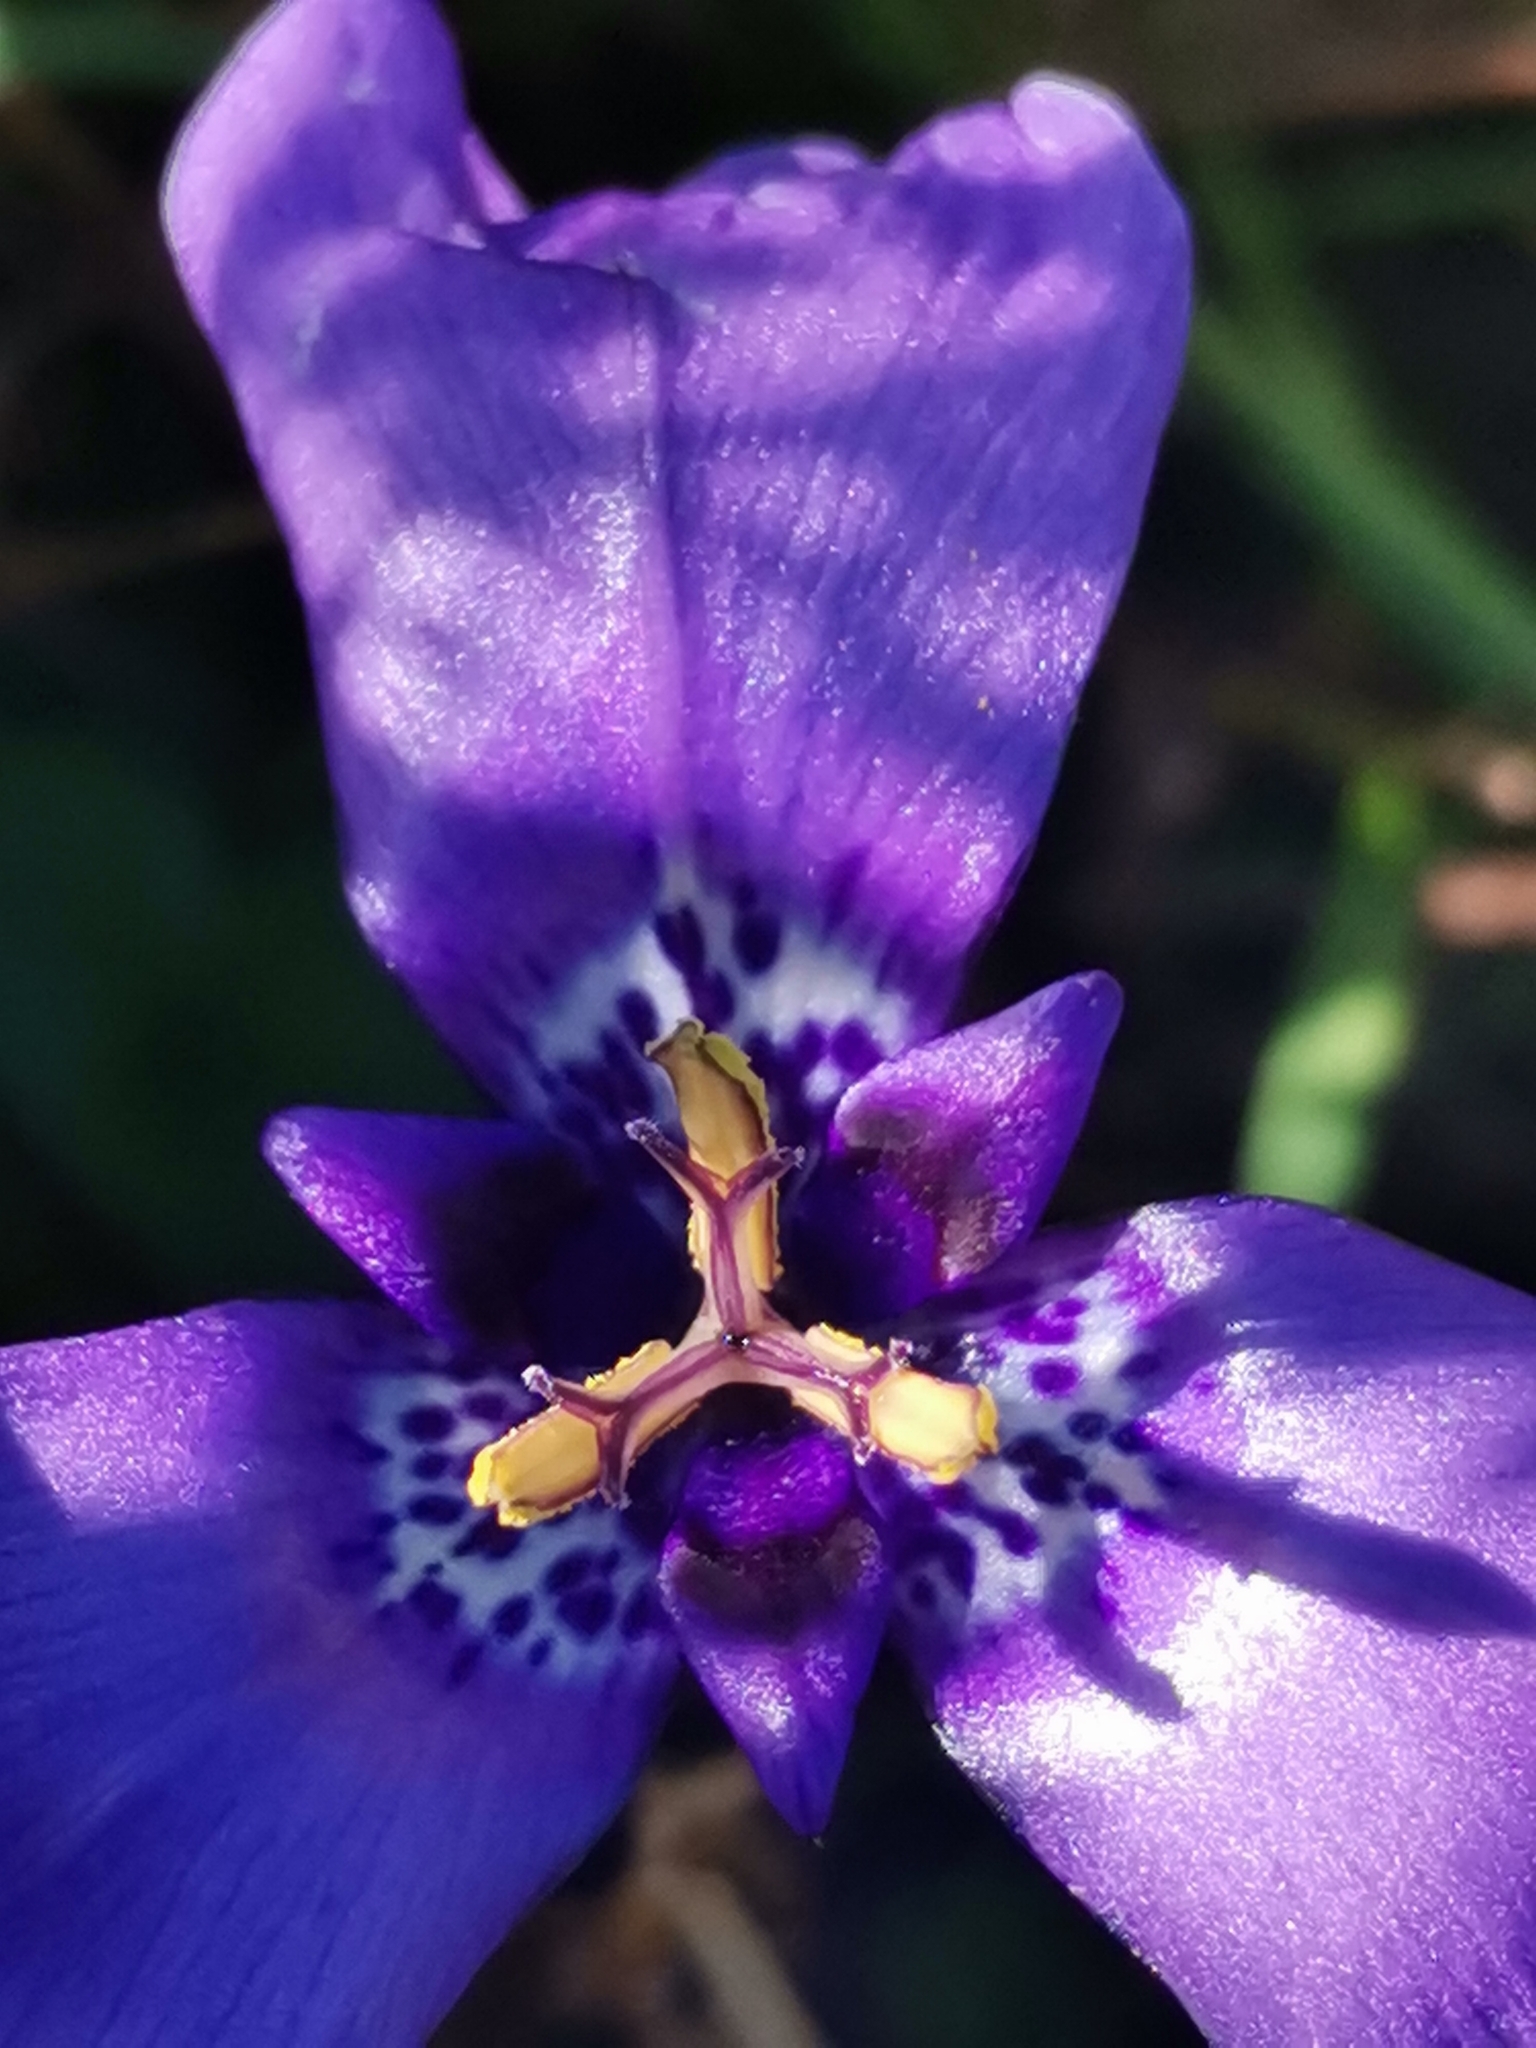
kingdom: Plantae
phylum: Tracheophyta
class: Liliopsida
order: Asparagales
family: Iridaceae
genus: Herbertia
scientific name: Herbertia lahue
